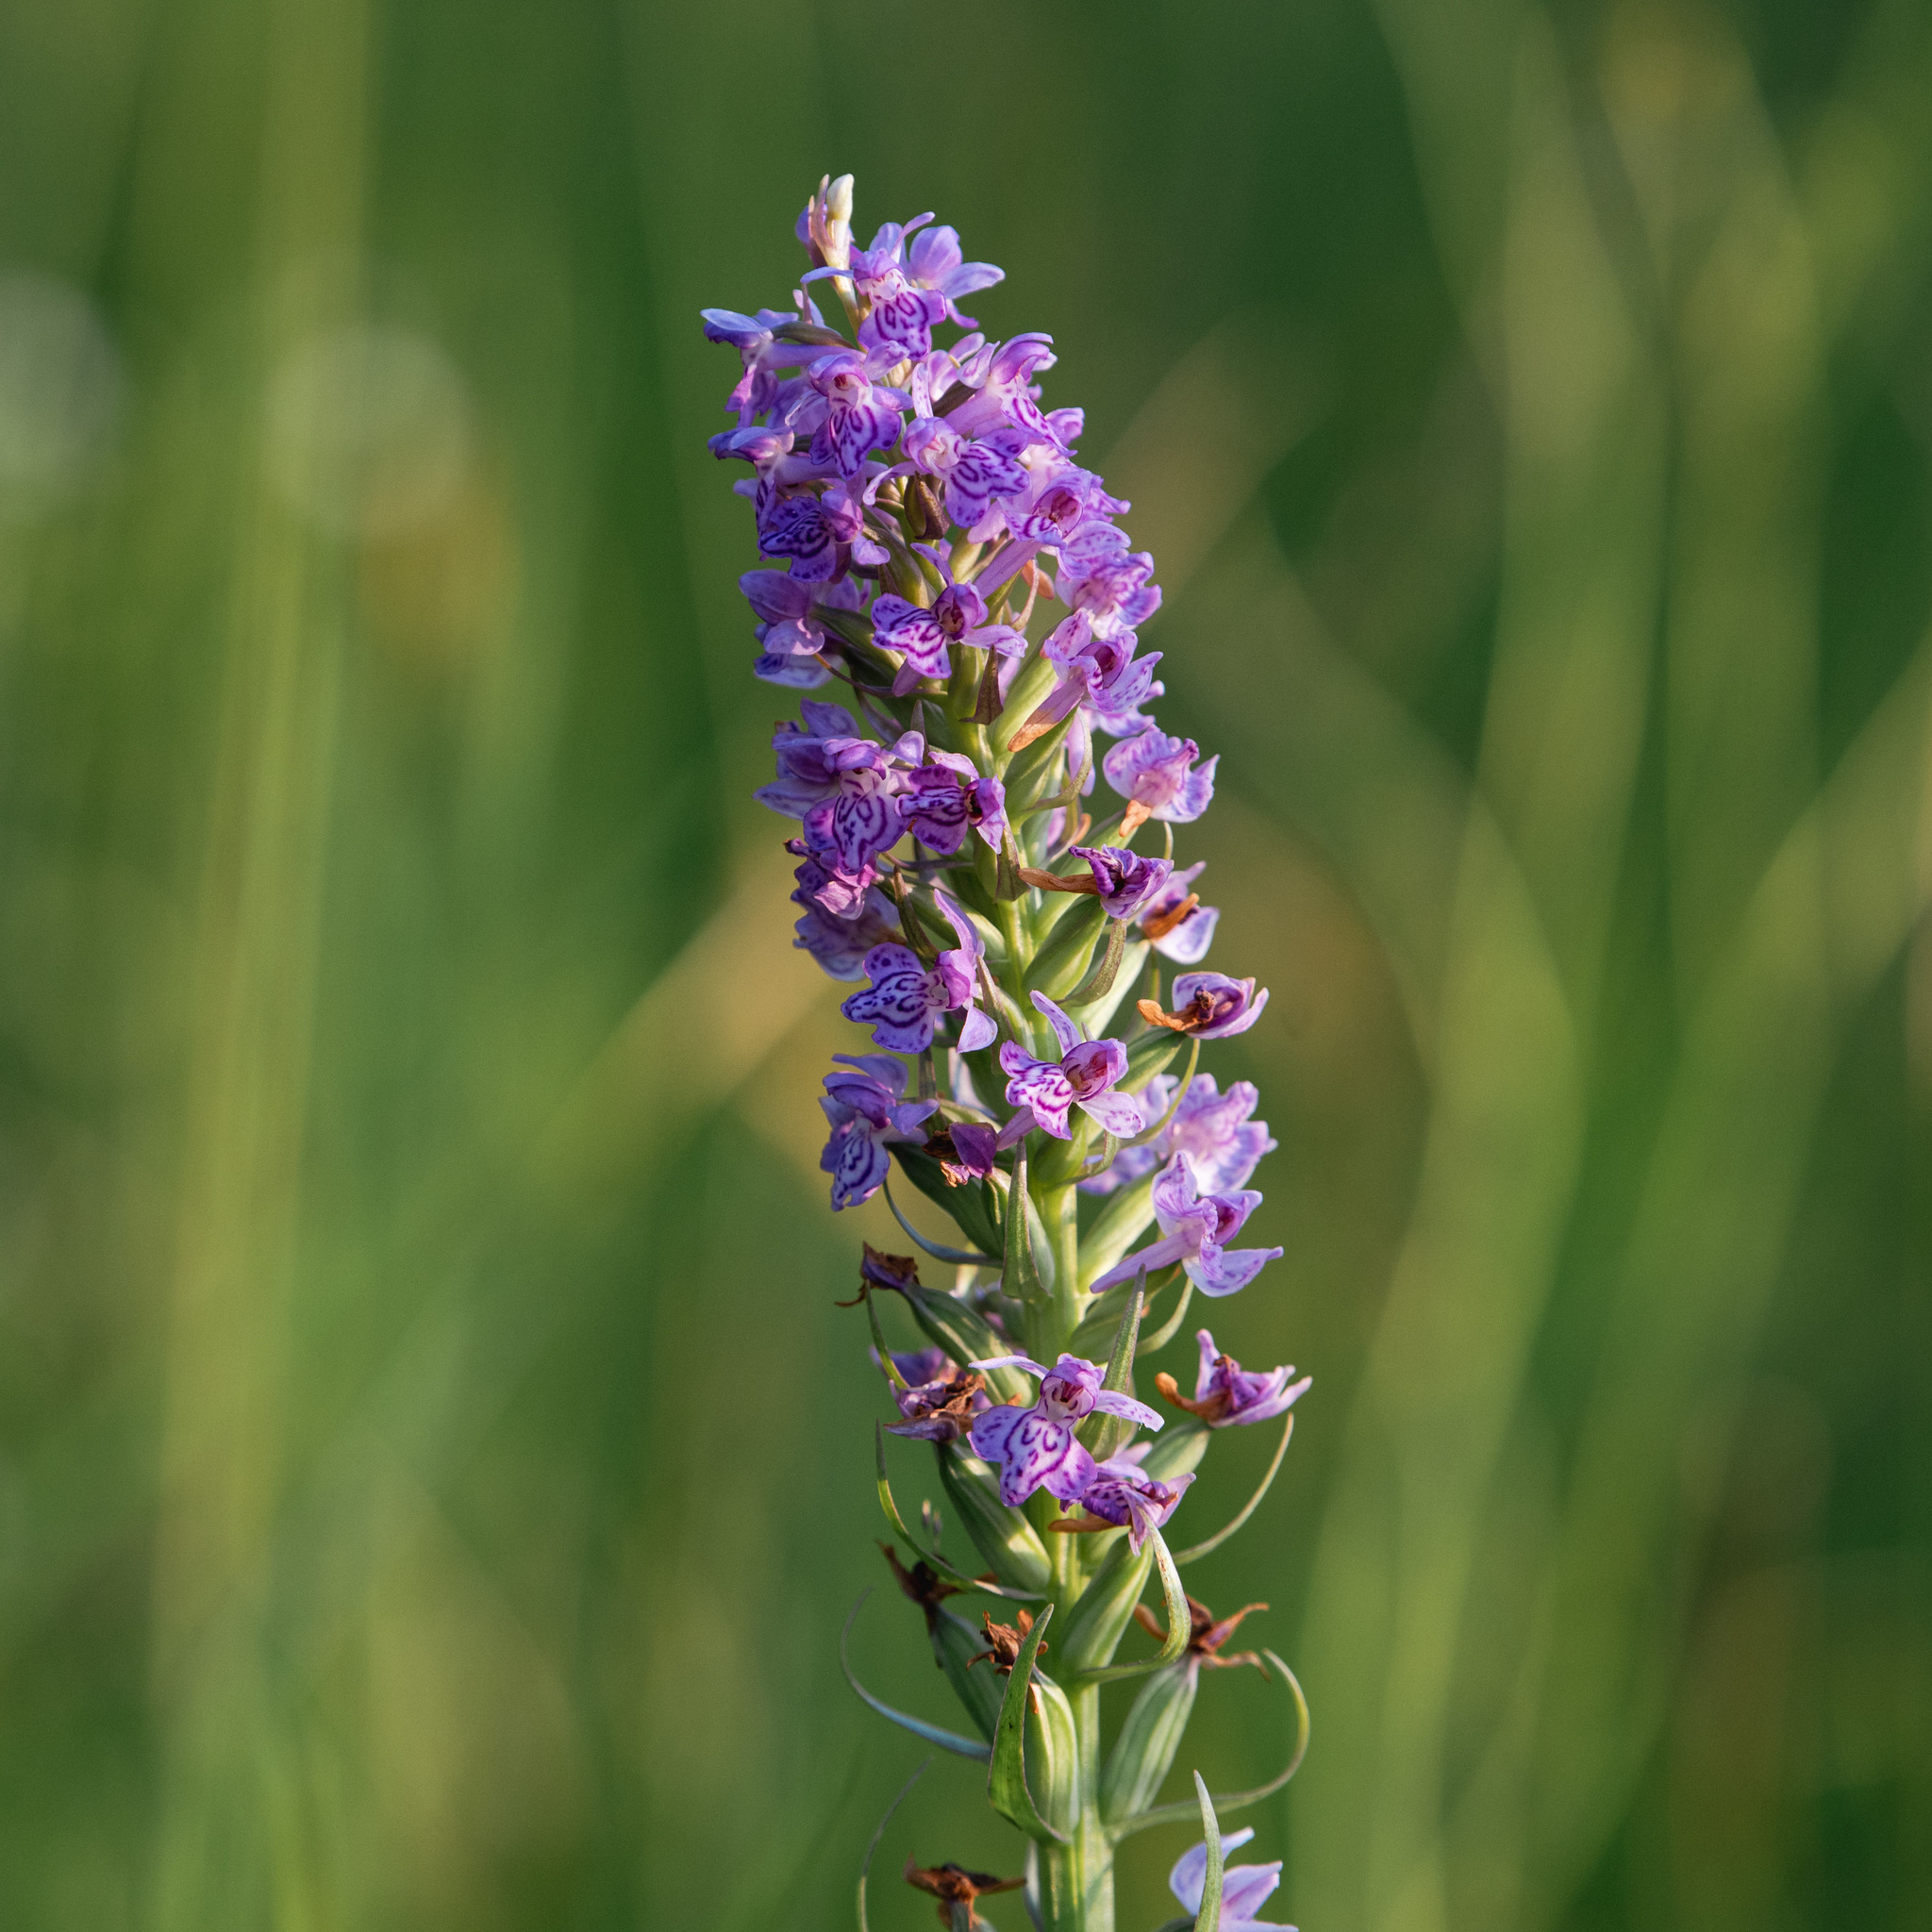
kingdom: Plantae
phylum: Tracheophyta
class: Liliopsida
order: Asparagales
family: Orchidaceae
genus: Dactylorhiza
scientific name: Dactylorhiza majalis
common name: Marsh orchid
